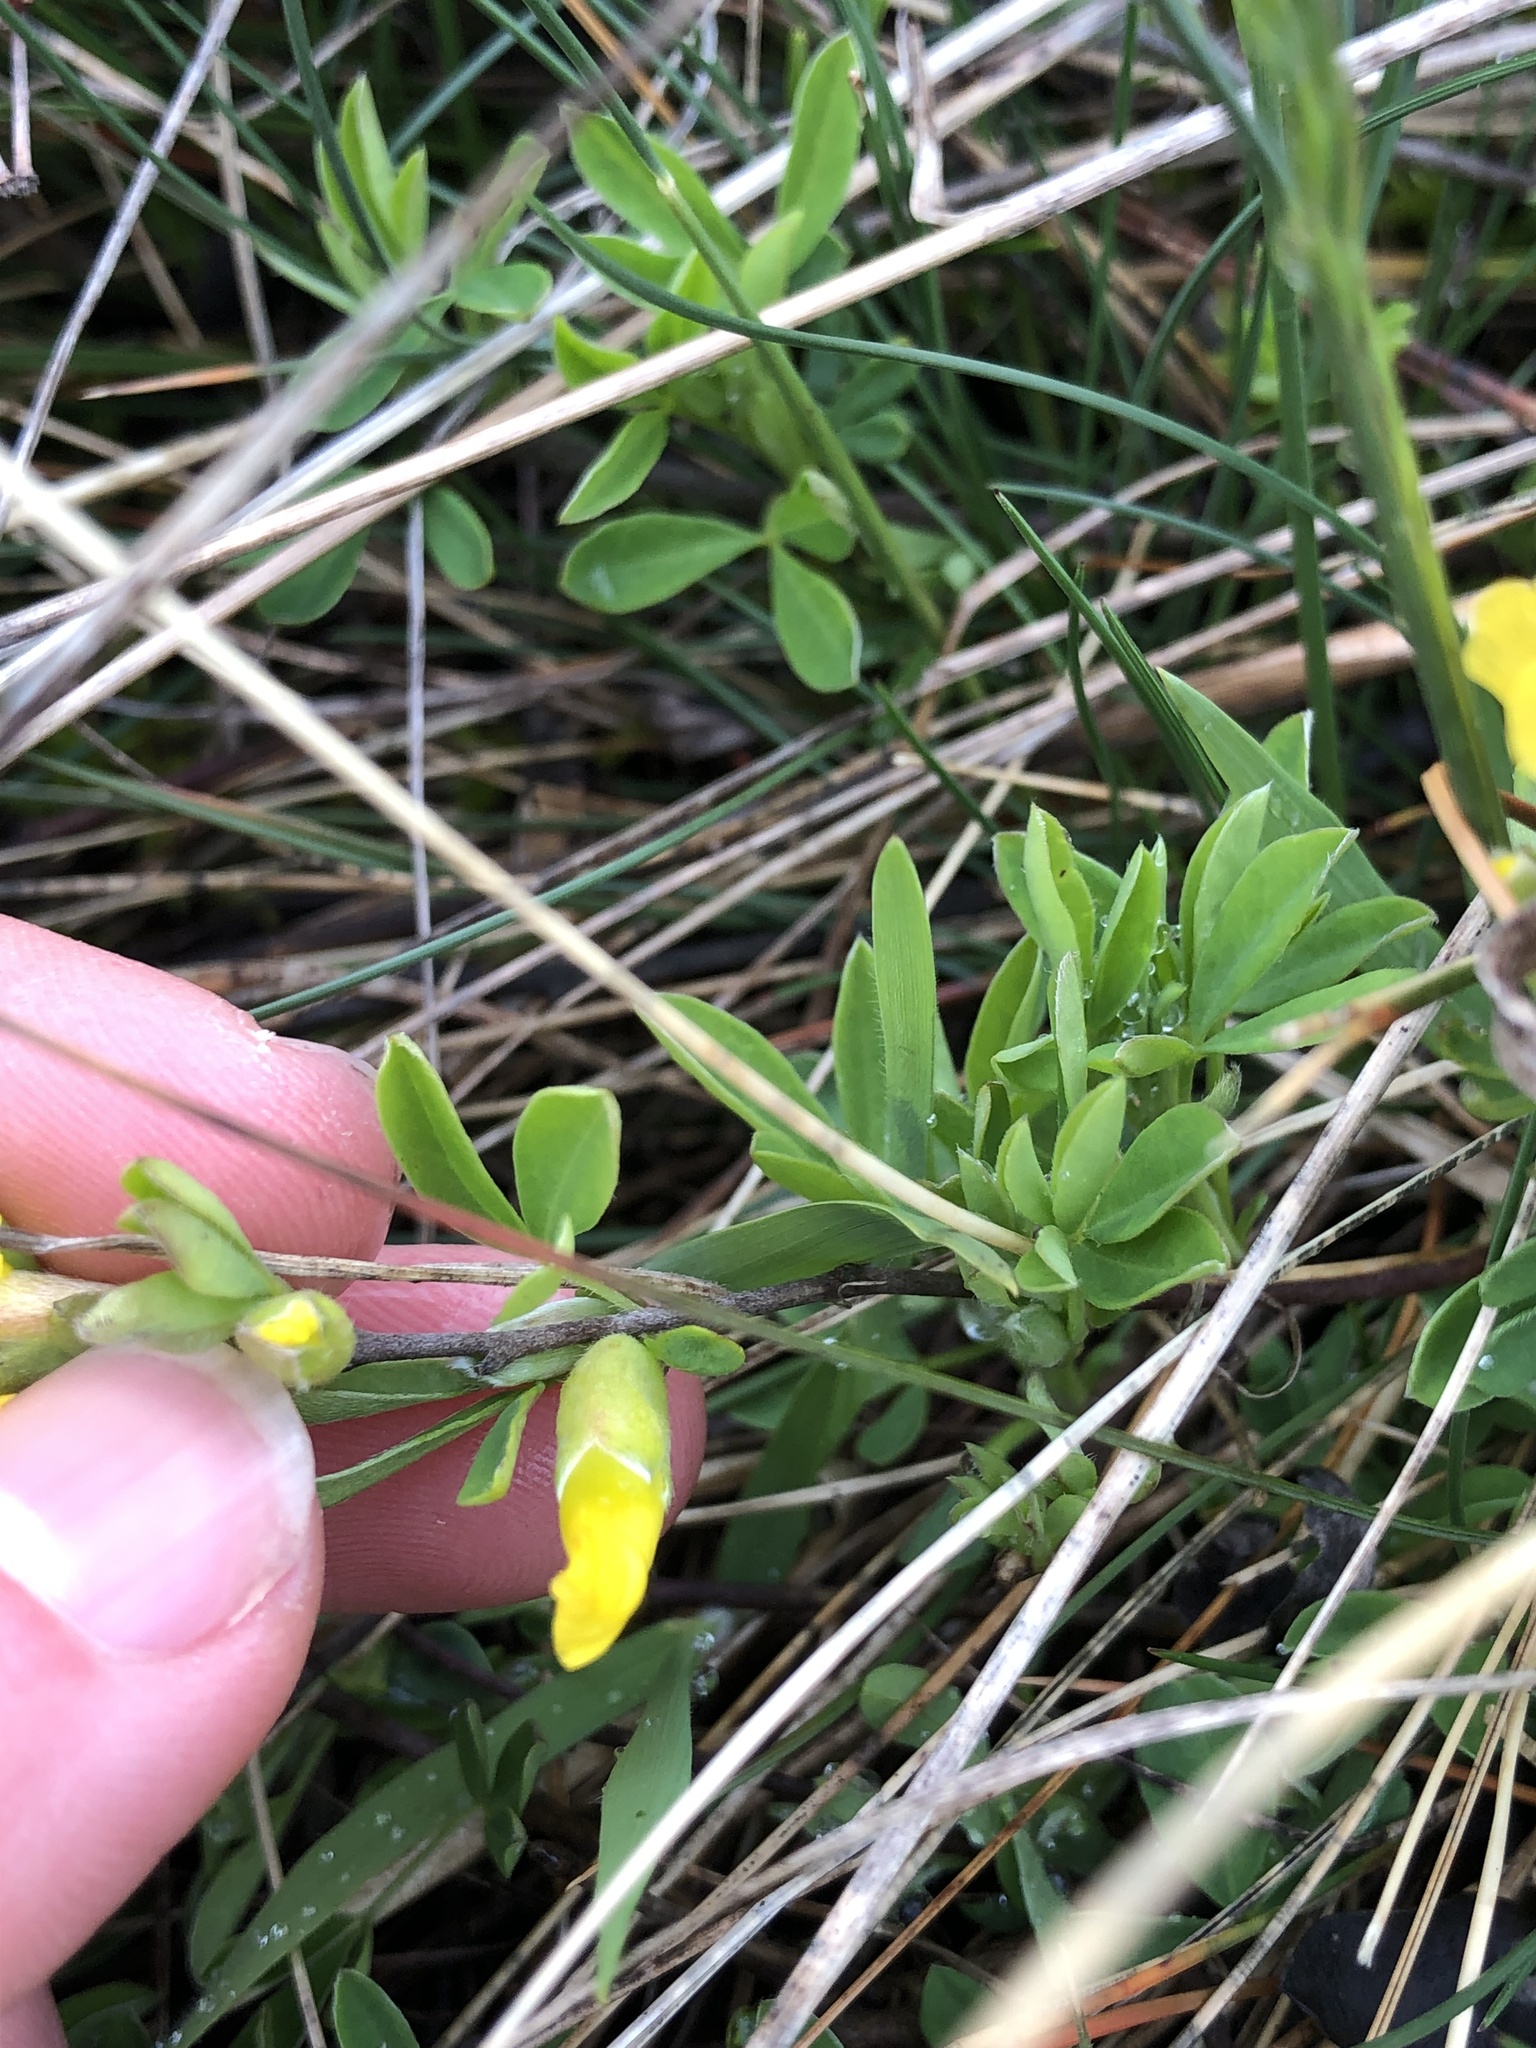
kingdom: Plantae
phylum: Tracheophyta
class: Magnoliopsida
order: Fabales
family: Fabaceae
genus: Chamaecytisus
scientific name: Chamaecytisus ratisbonensis
